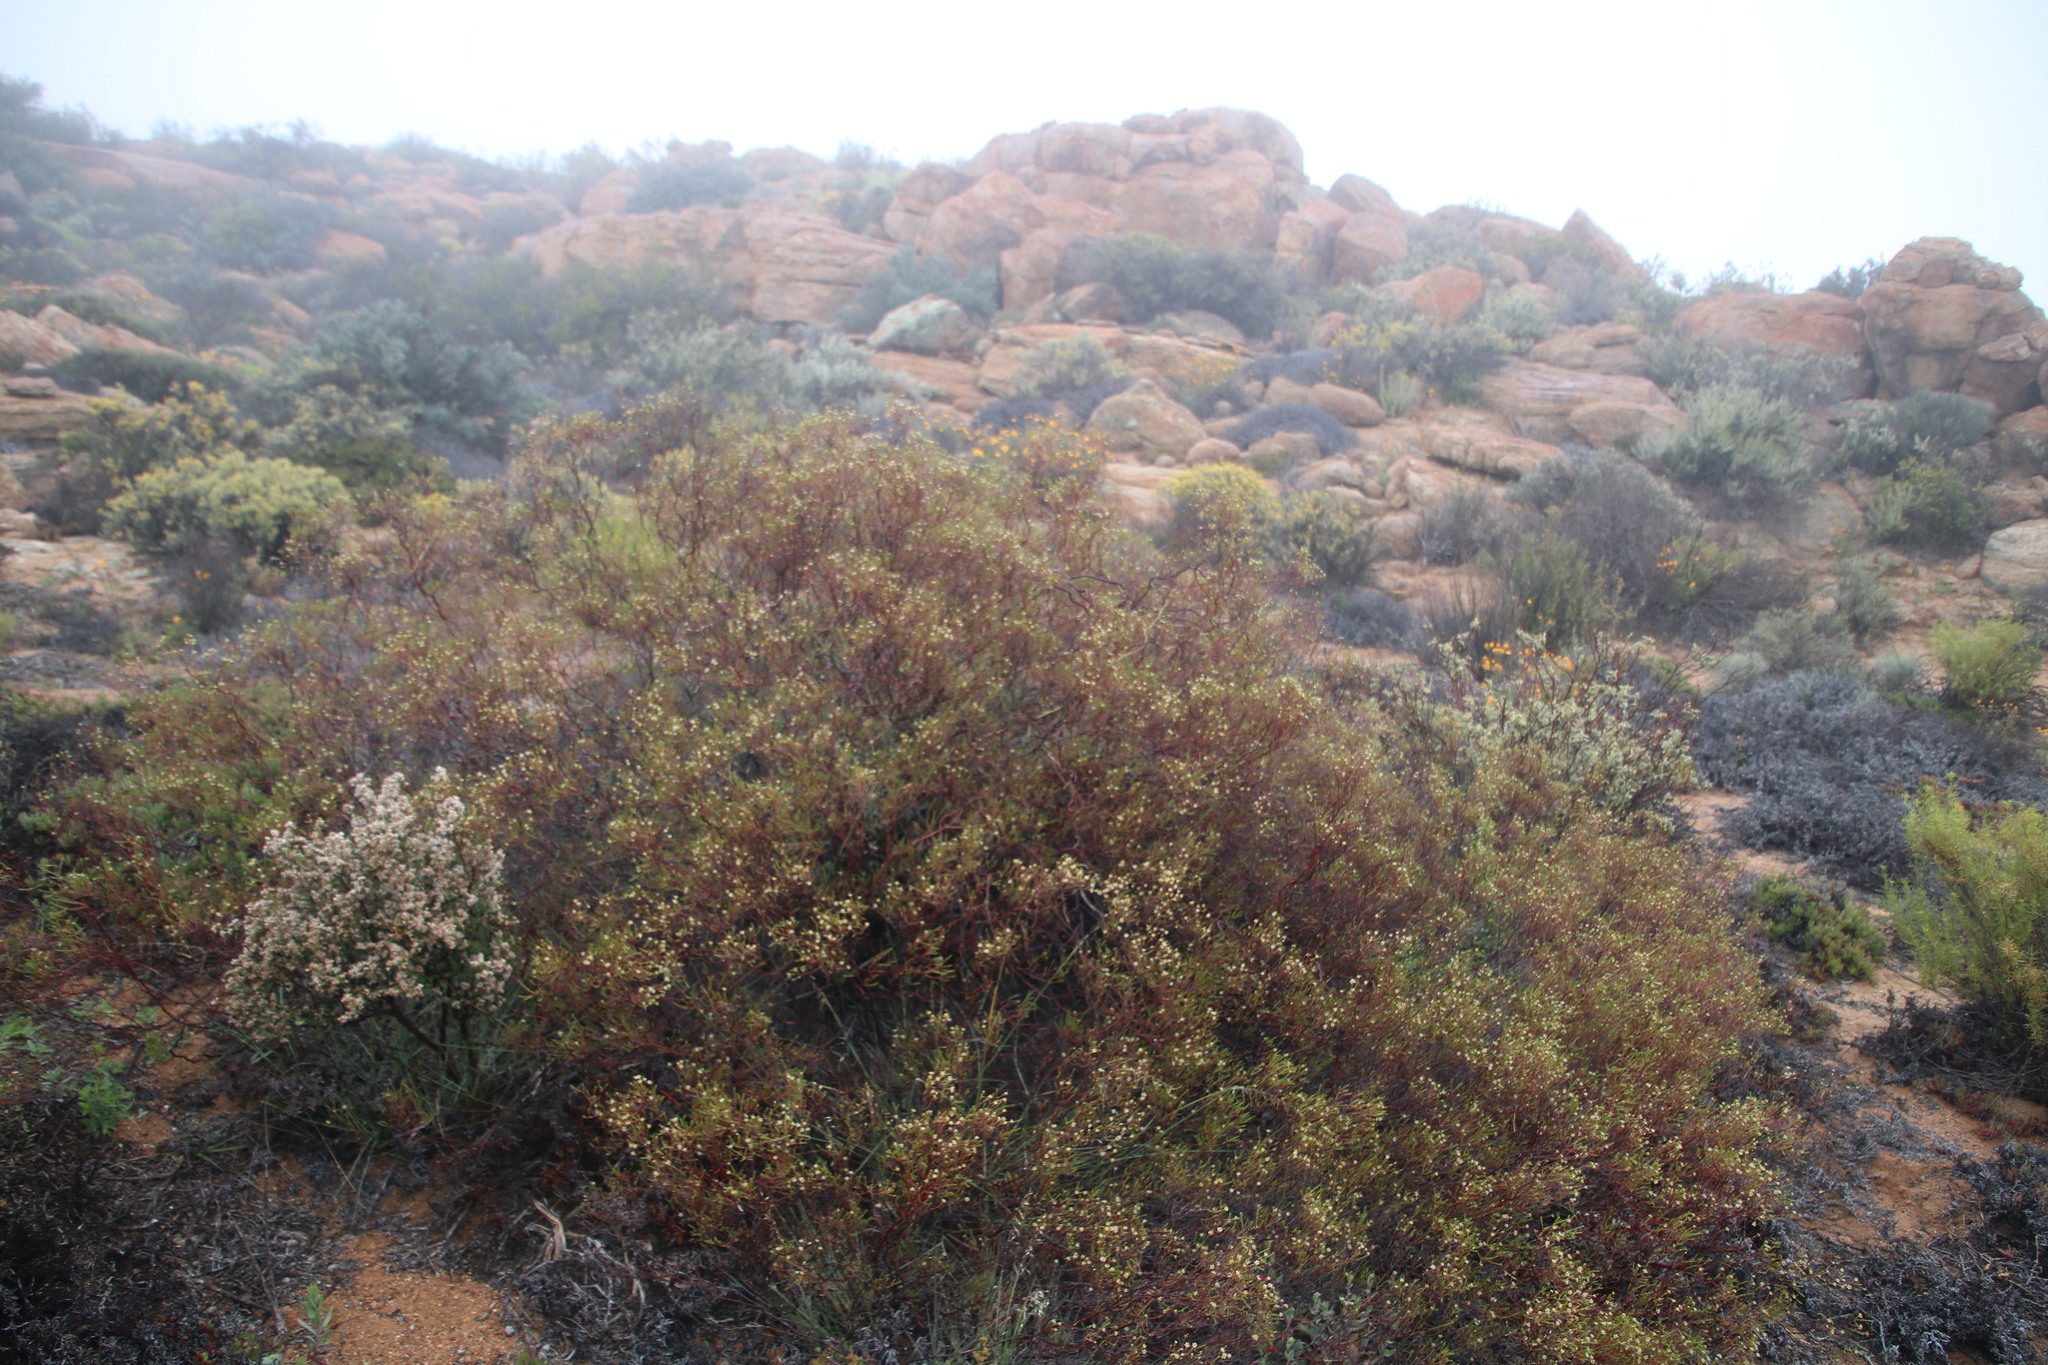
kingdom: Plantae
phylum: Tracheophyta
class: Magnoliopsida
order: Sapindales
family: Rutaceae
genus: Diosma
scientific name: Diosma ramosissima
